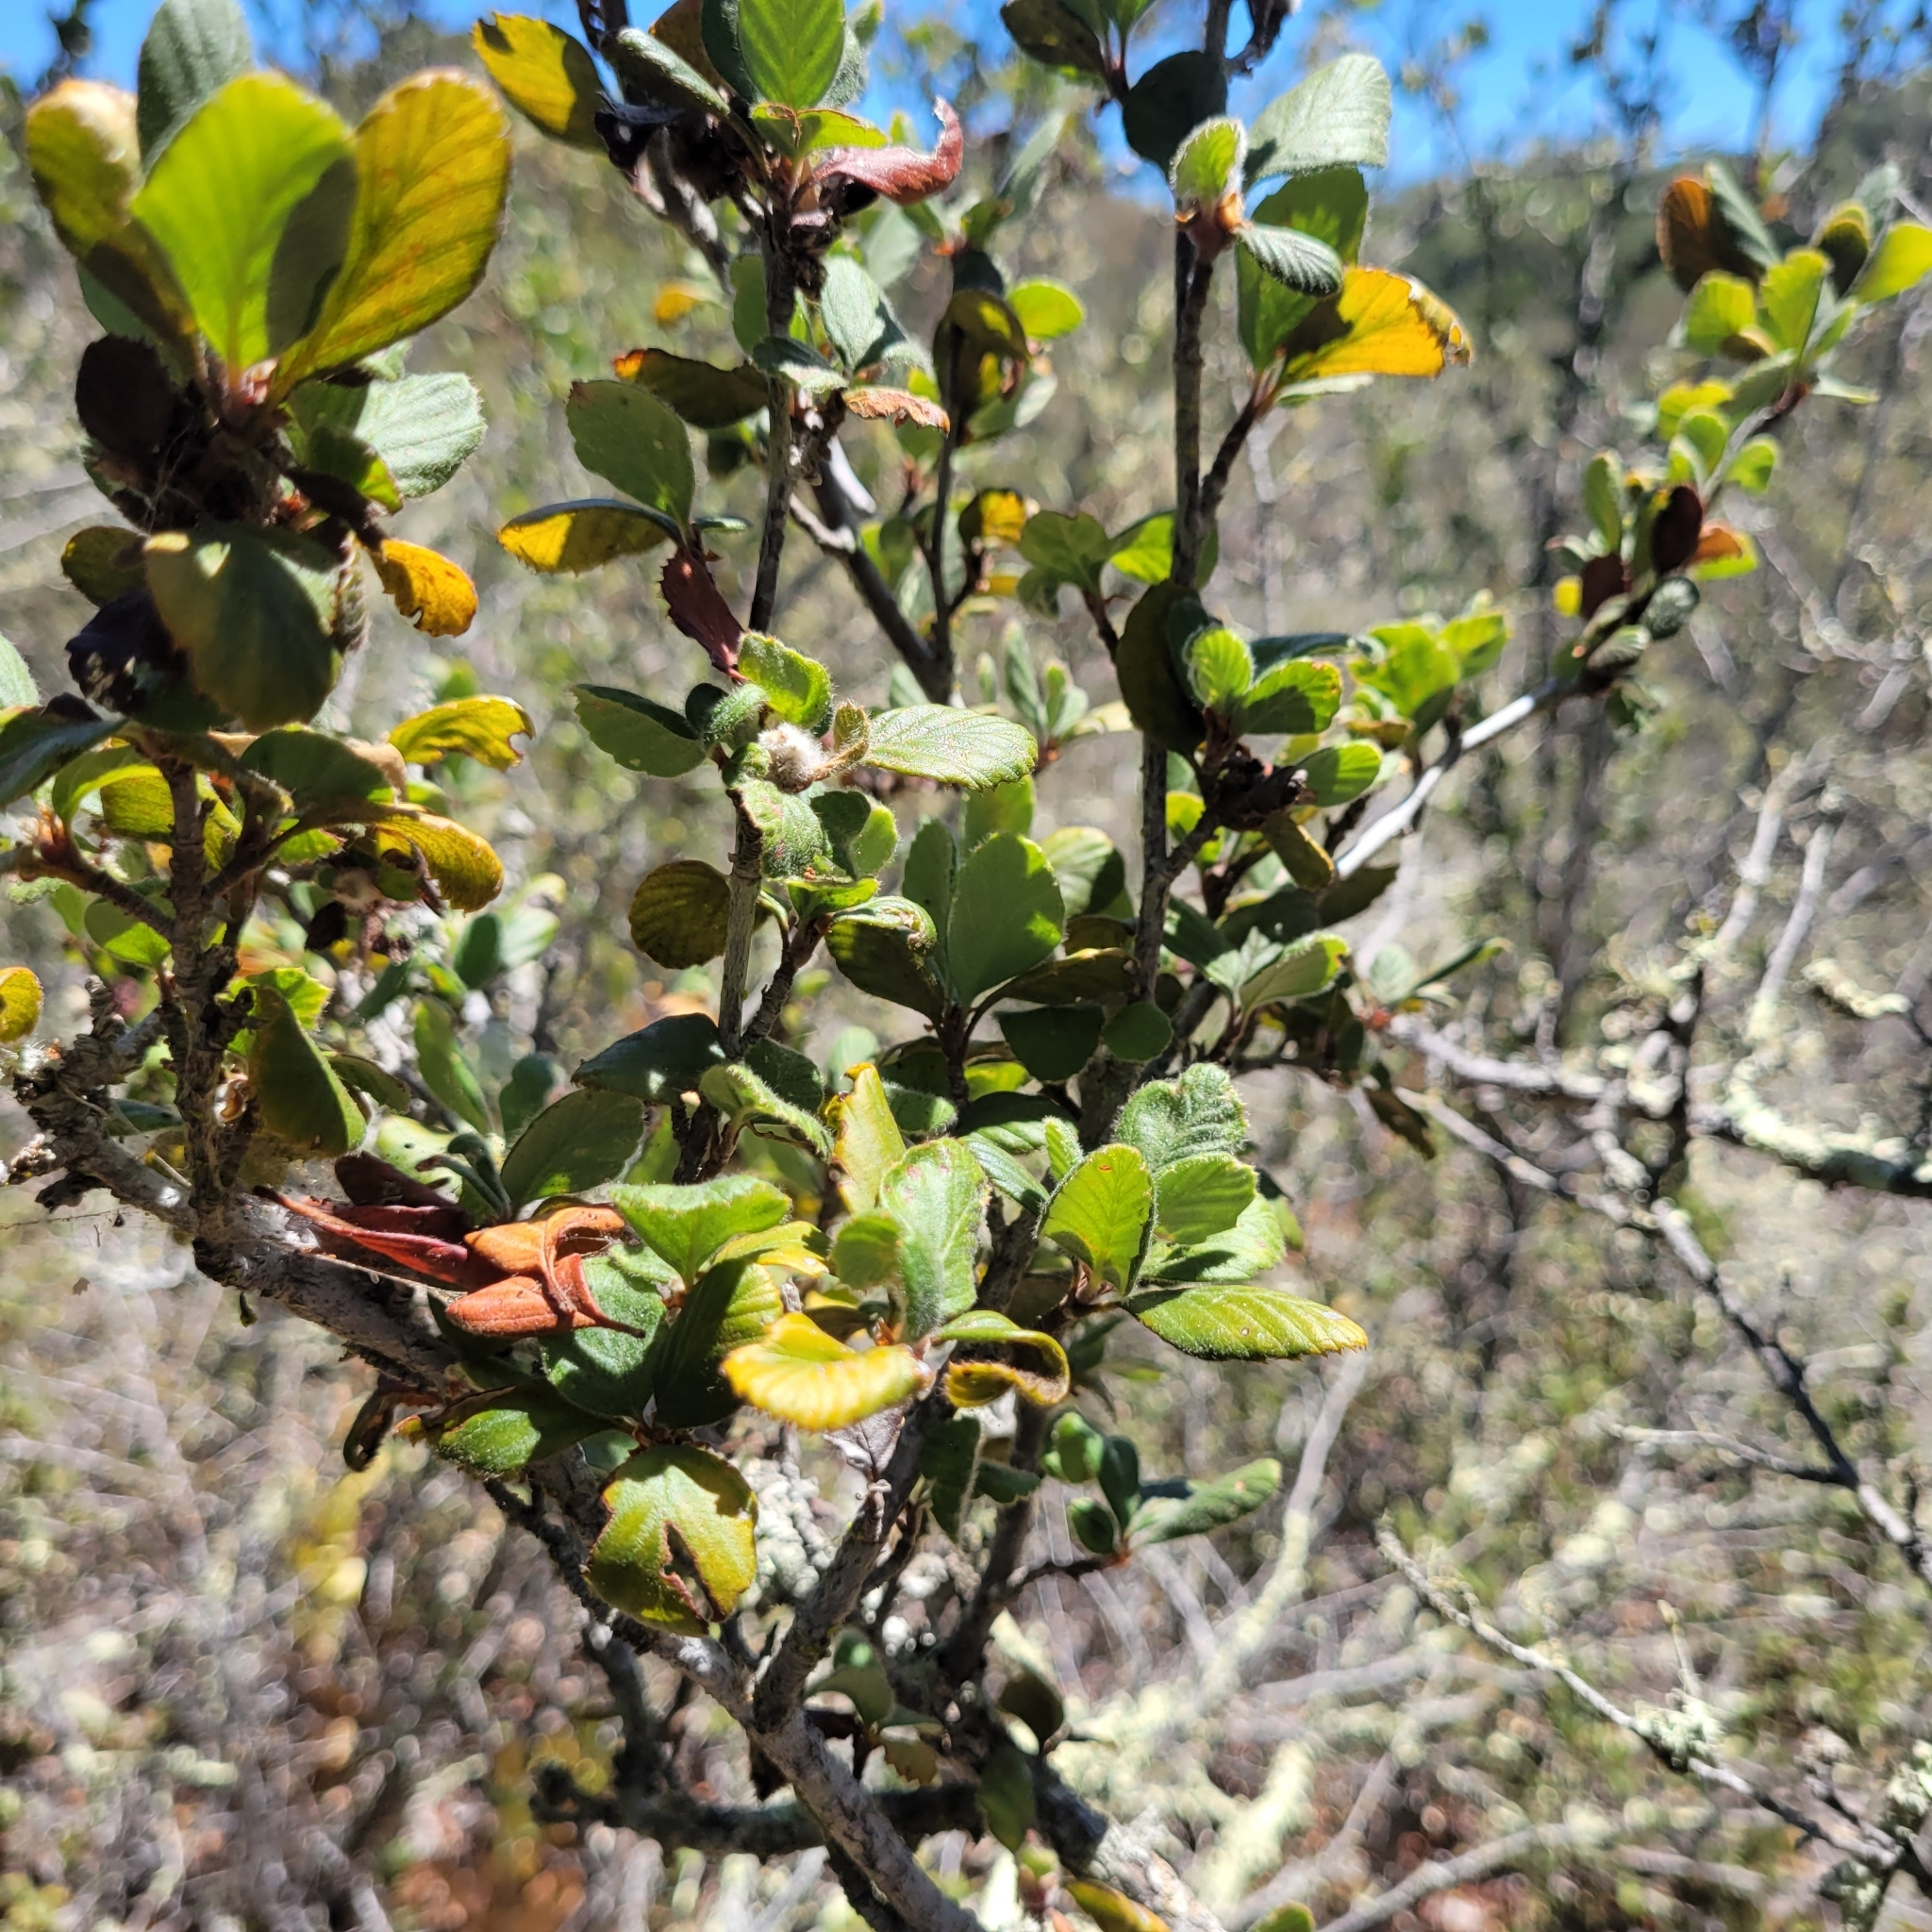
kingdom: Plantae
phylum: Tracheophyta
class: Magnoliopsida
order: Rosales
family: Rosaceae
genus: Cercocarpus
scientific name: Cercocarpus betuloides
